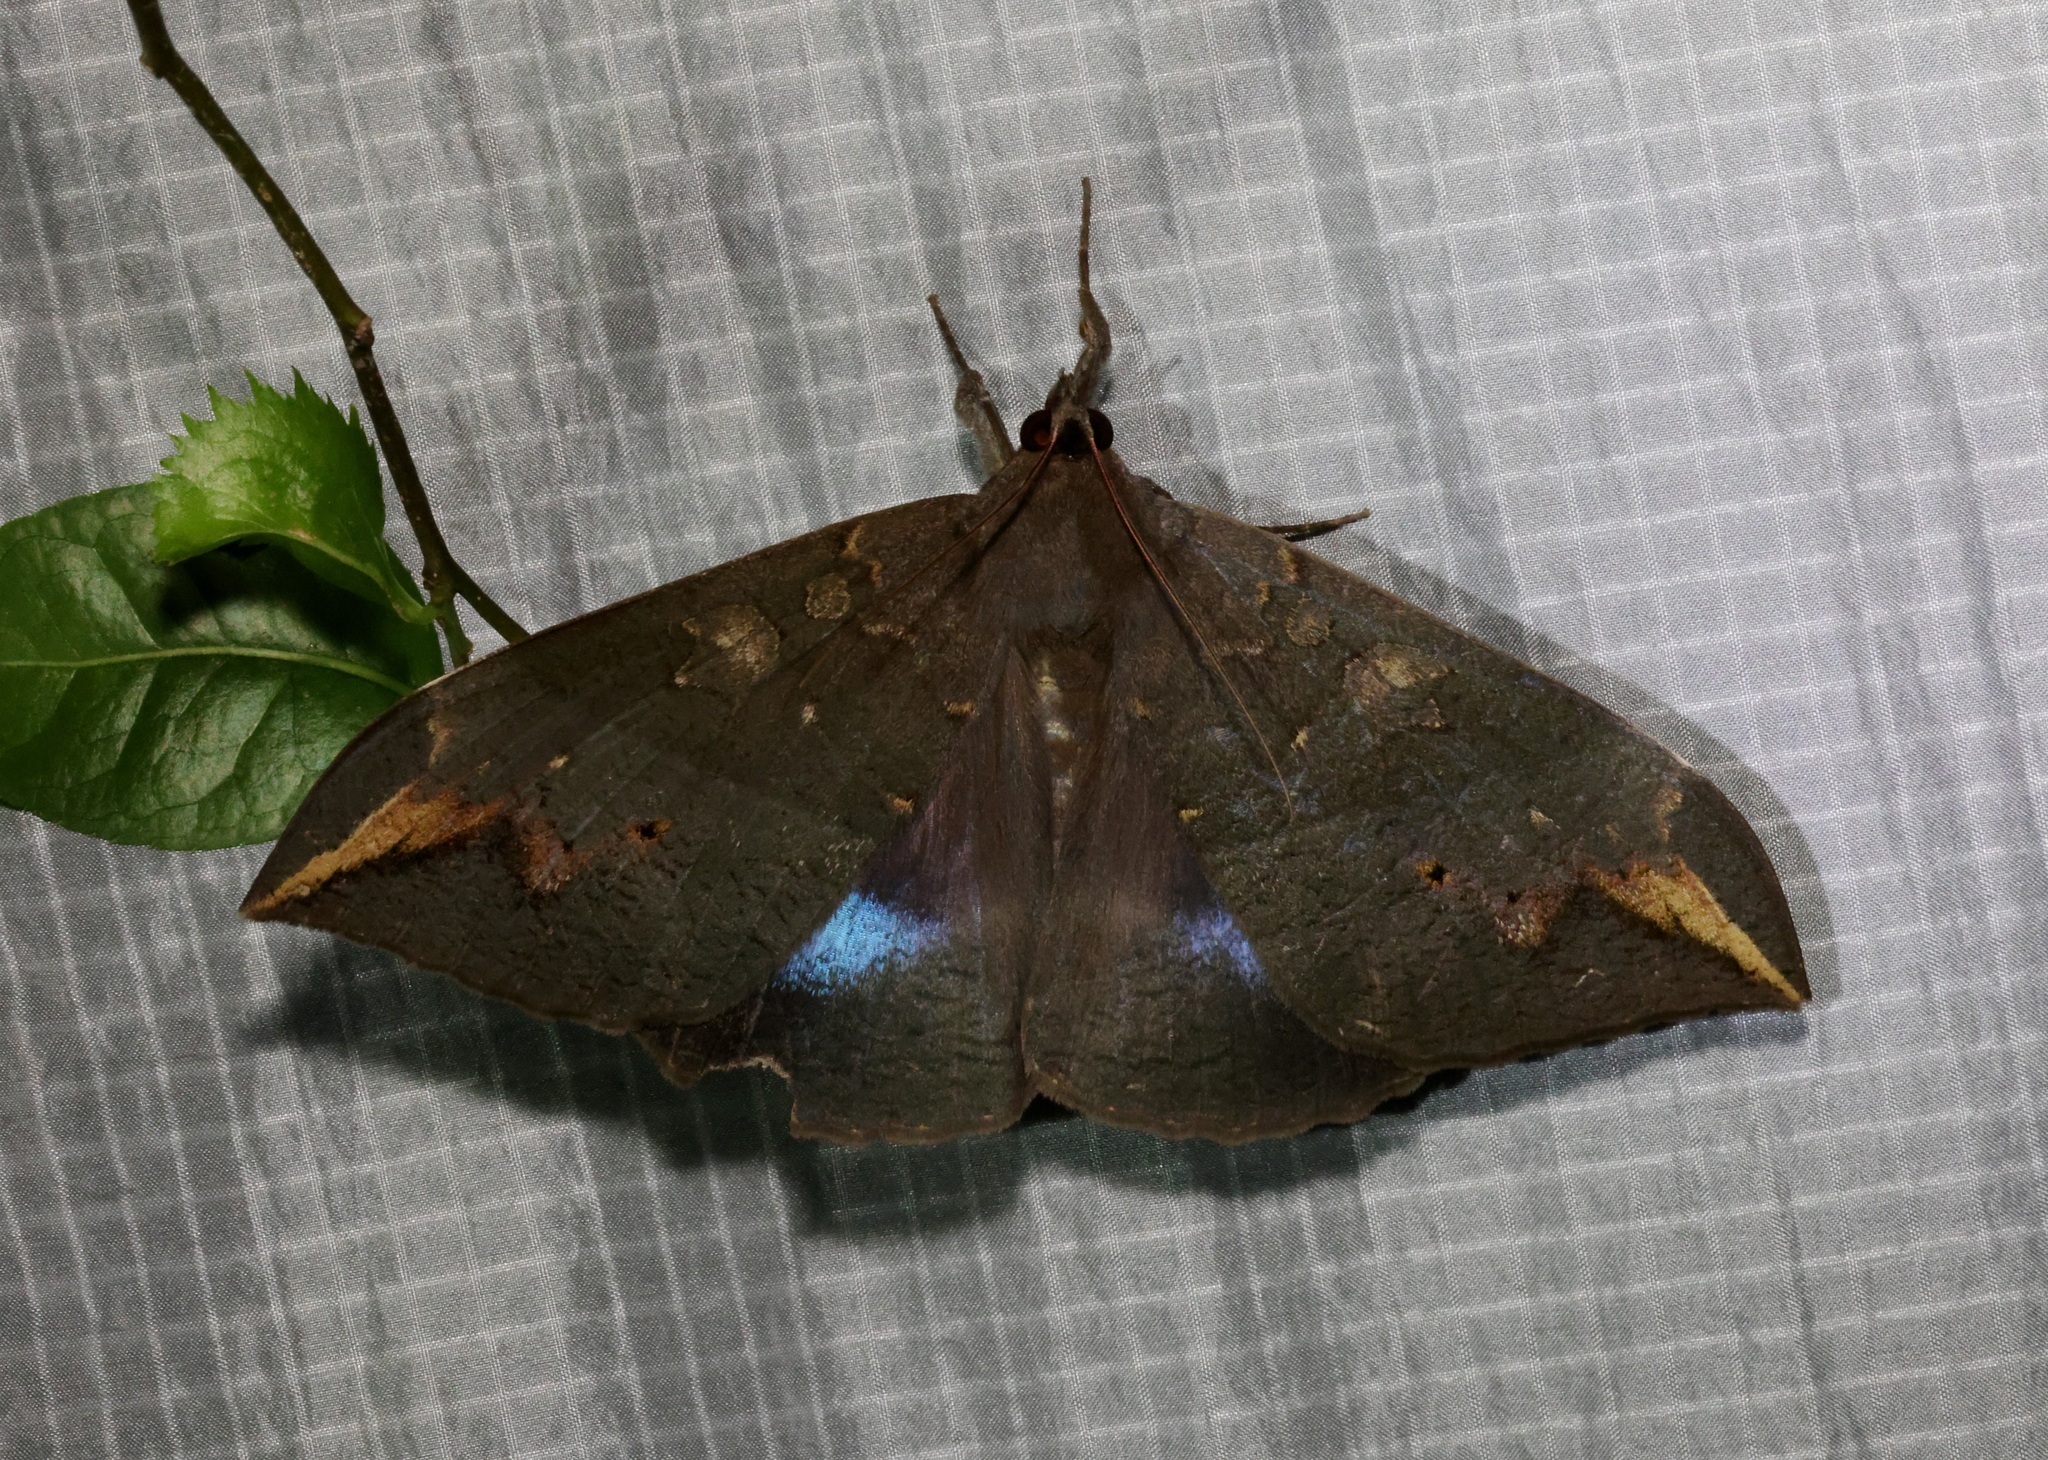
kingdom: Animalia
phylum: Arthropoda
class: Insecta
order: Lepidoptera
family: Erebidae
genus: Ischyja
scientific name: Ischyja ferrifracta
